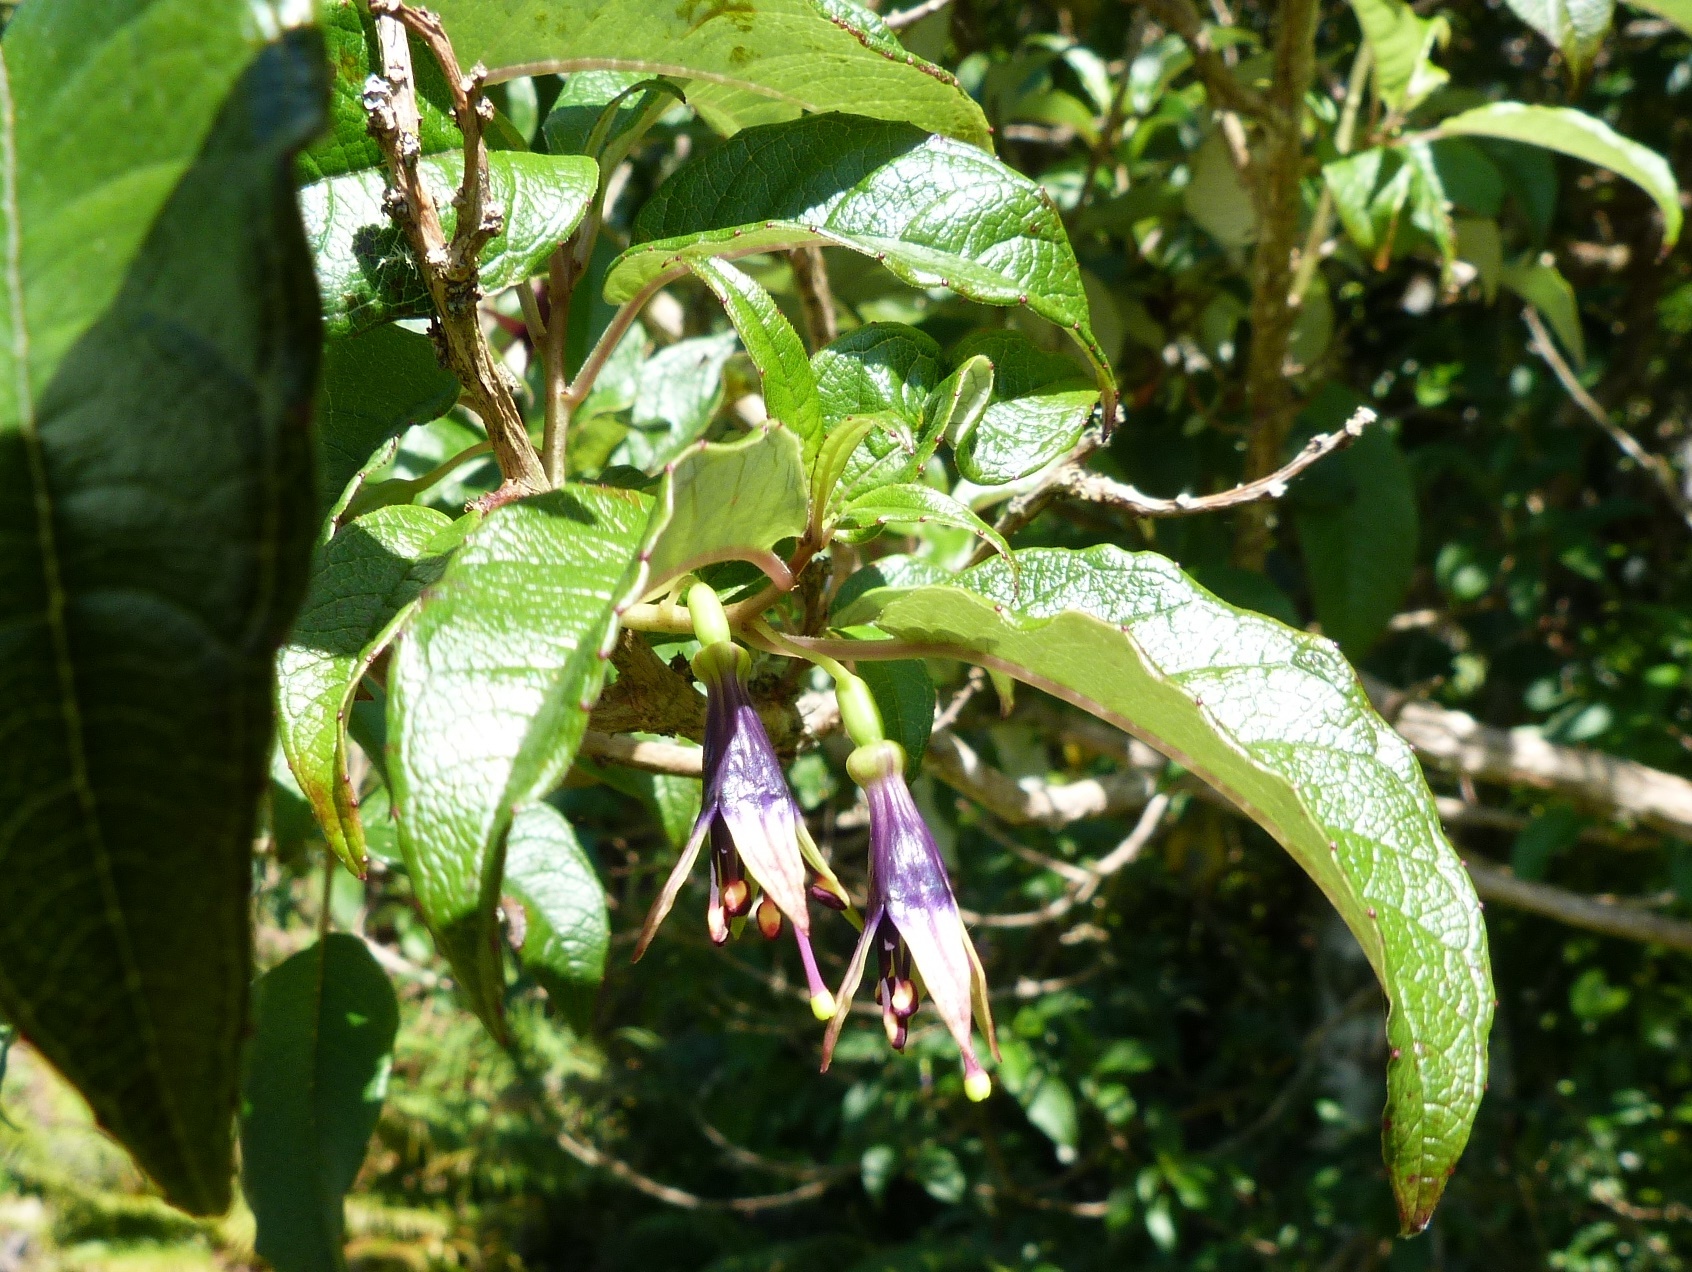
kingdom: Plantae
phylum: Tracheophyta
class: Magnoliopsida
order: Myrtales
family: Onagraceae
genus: Fuchsia
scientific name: Fuchsia excorticata
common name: Tree fuchsia
